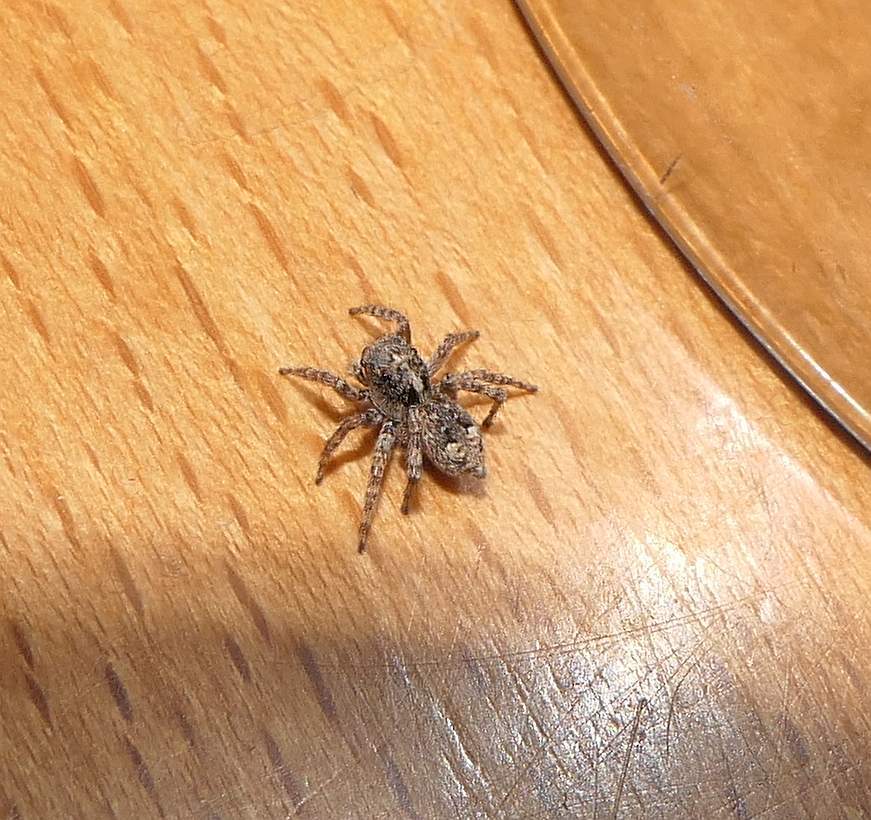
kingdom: Animalia
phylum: Arthropoda
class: Arachnida
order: Araneae
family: Salticidae
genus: Attulus
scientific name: Attulus fasciger
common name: Asiatic wall jumping spider
